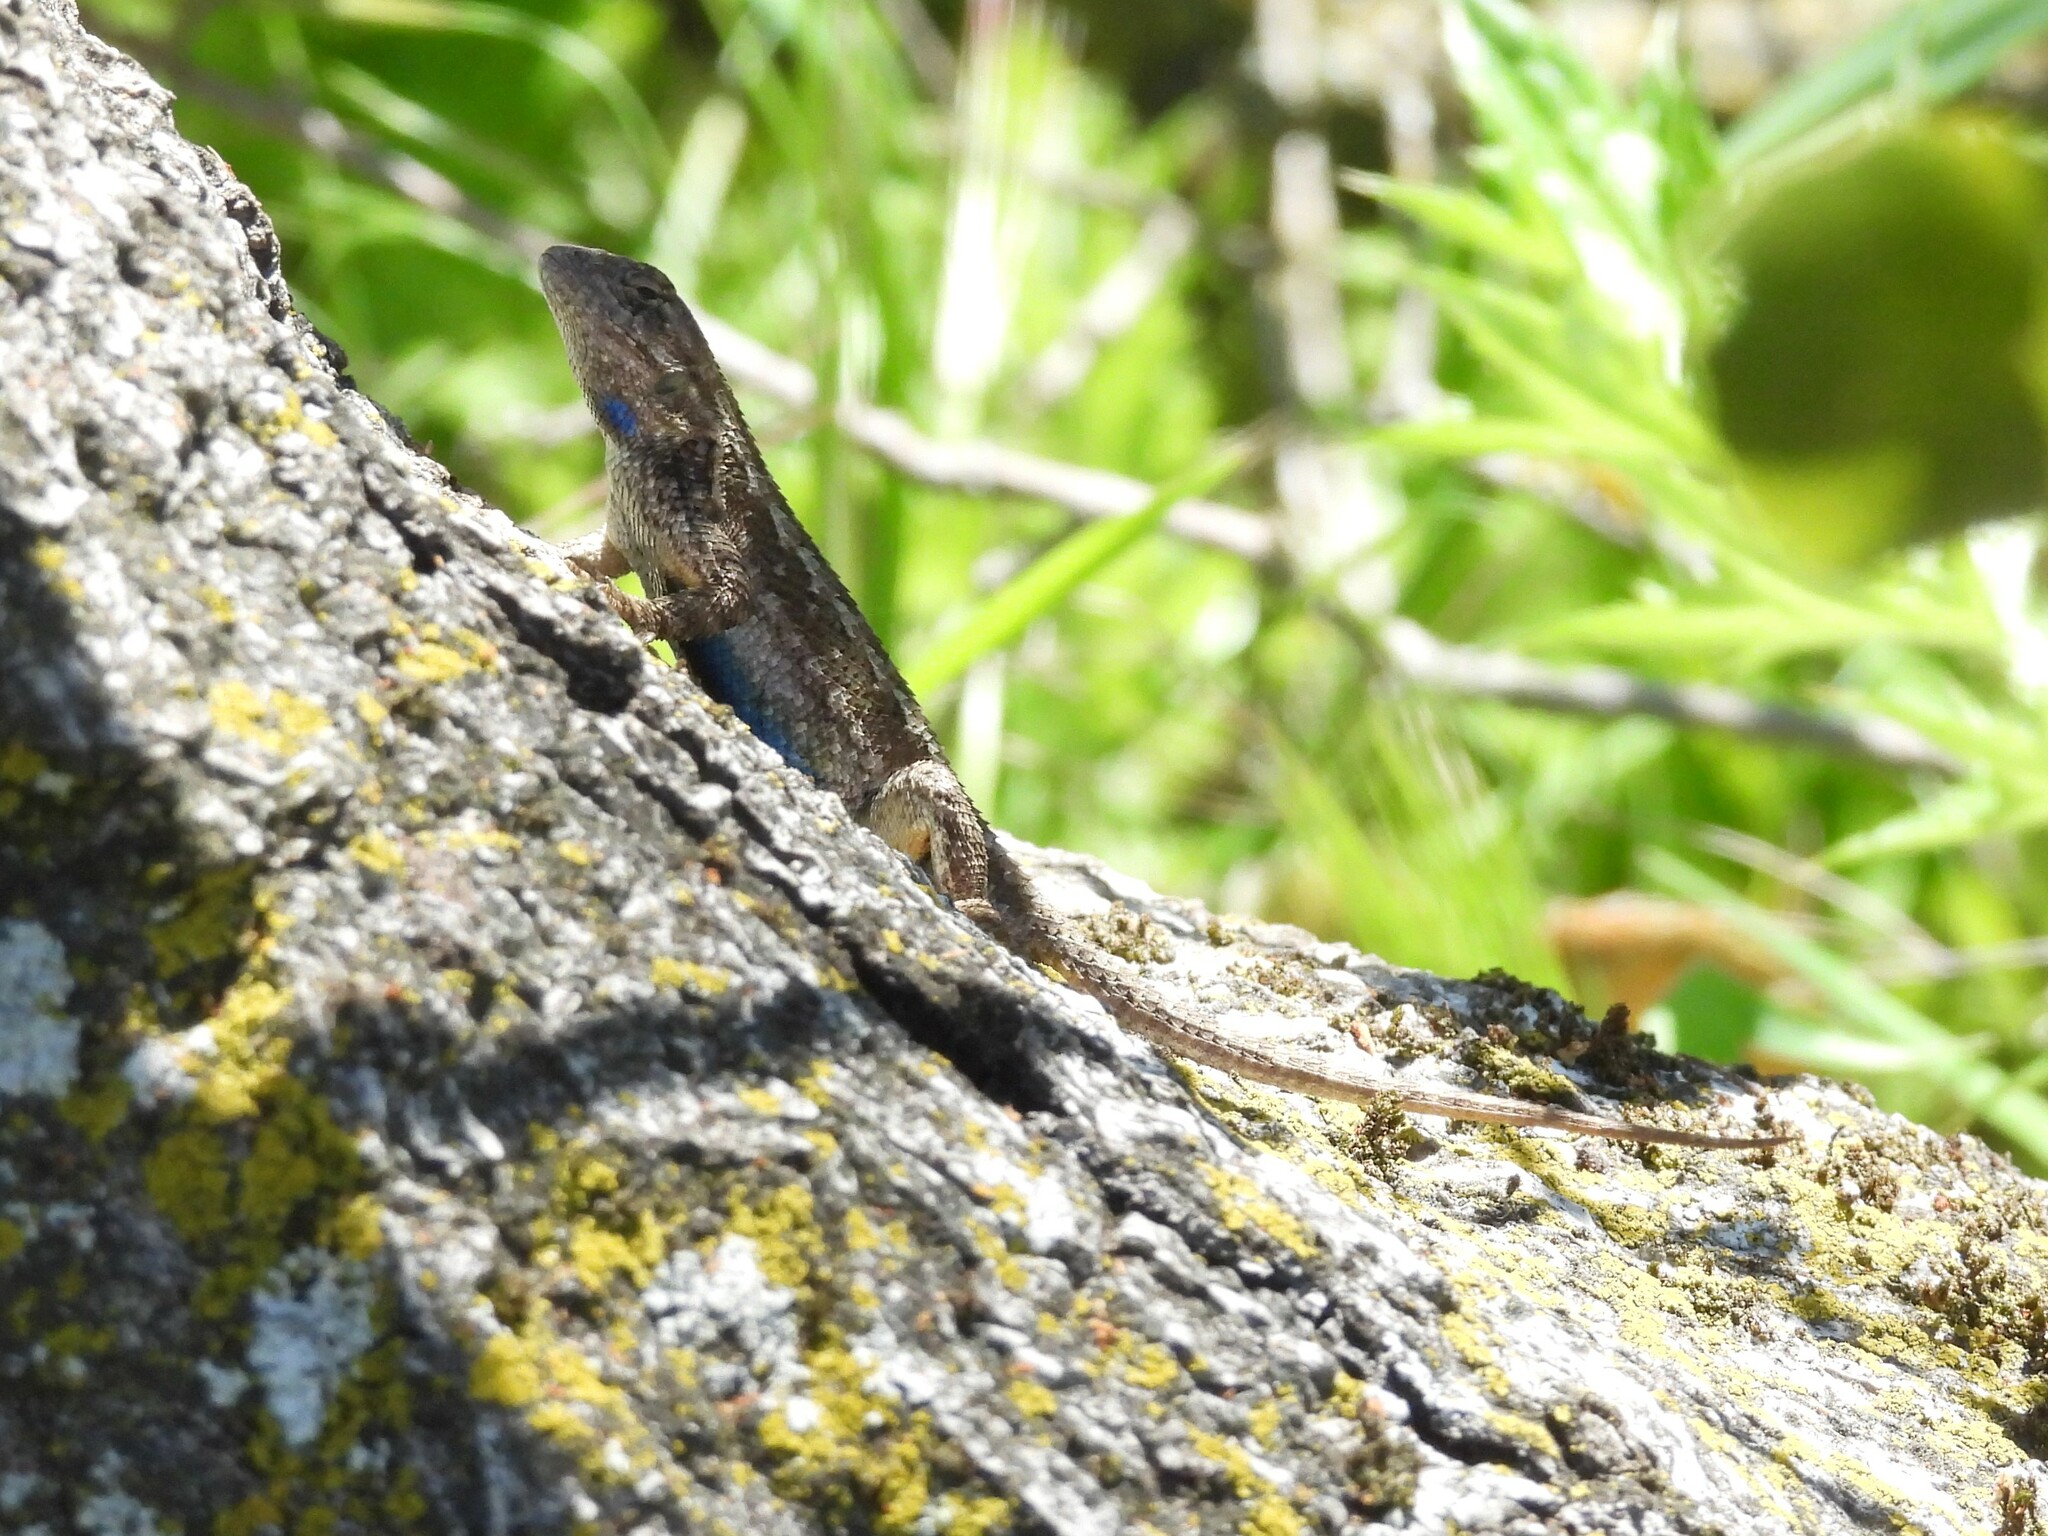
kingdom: Animalia
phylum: Chordata
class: Squamata
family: Phrynosomatidae
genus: Sceloporus
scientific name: Sceloporus occidentalis
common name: Western fence lizard
